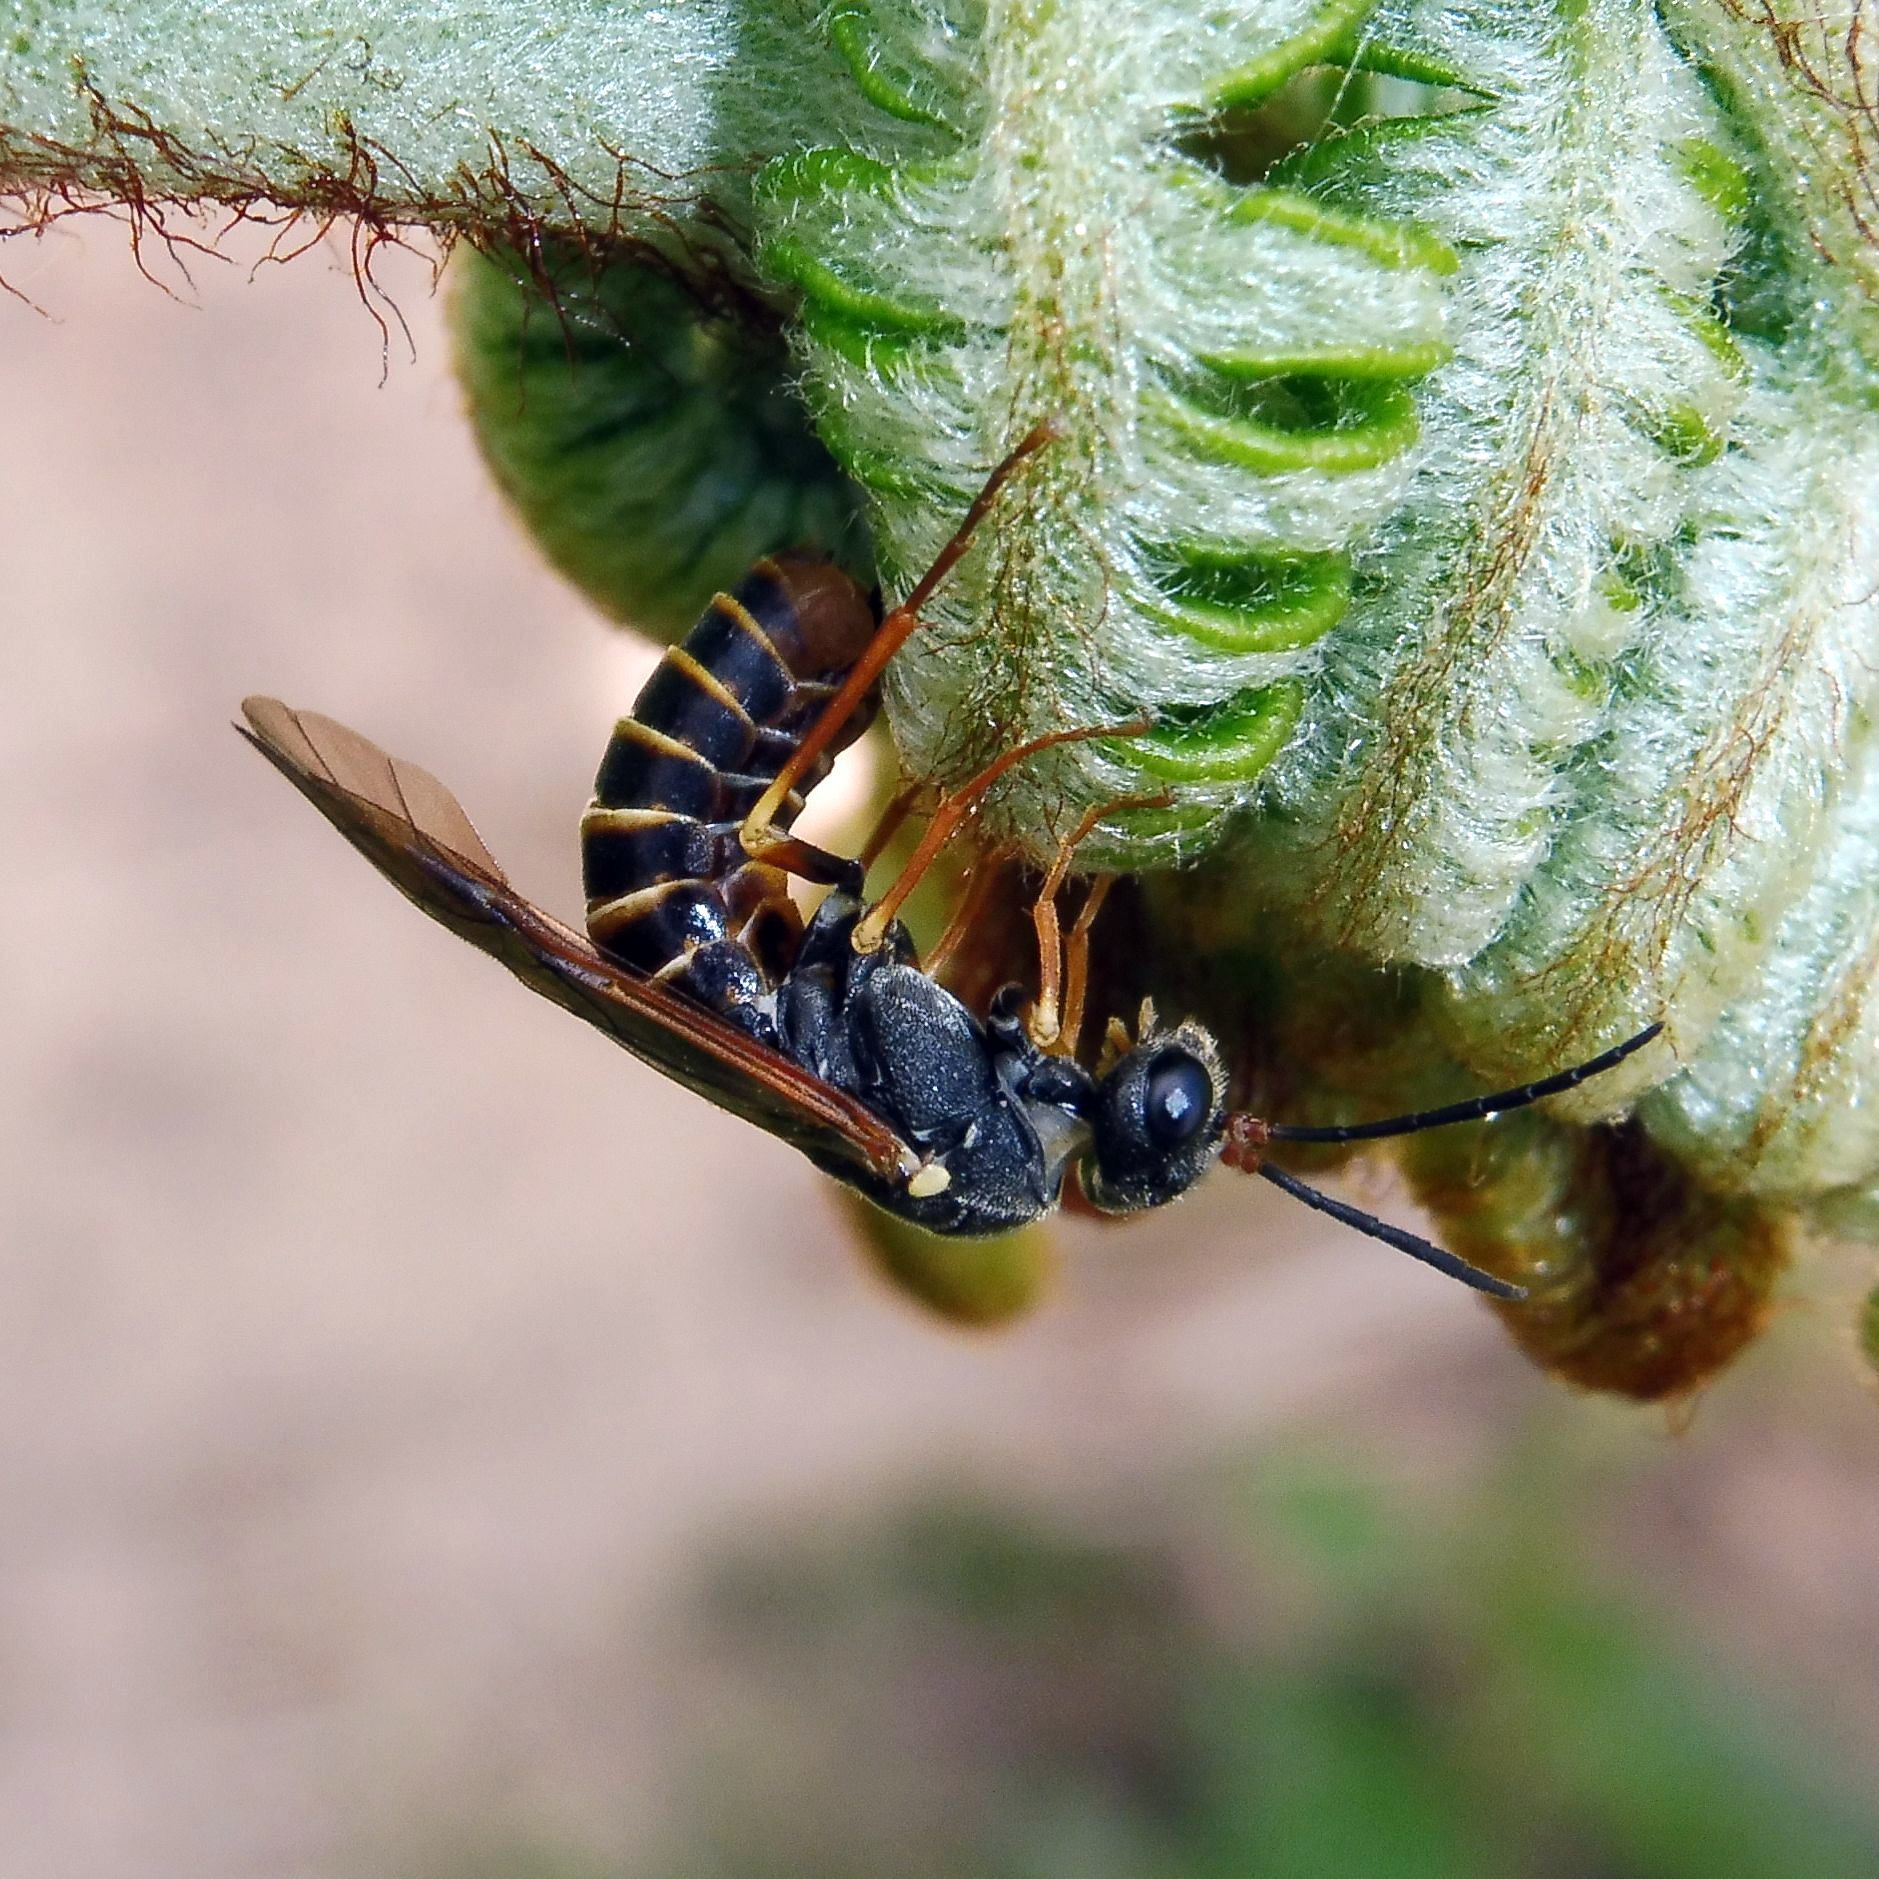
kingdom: Animalia
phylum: Arthropoda
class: Insecta
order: Hymenoptera
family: Tenthredinidae
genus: Strongylogaster
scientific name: Strongylogaster multifasciata
